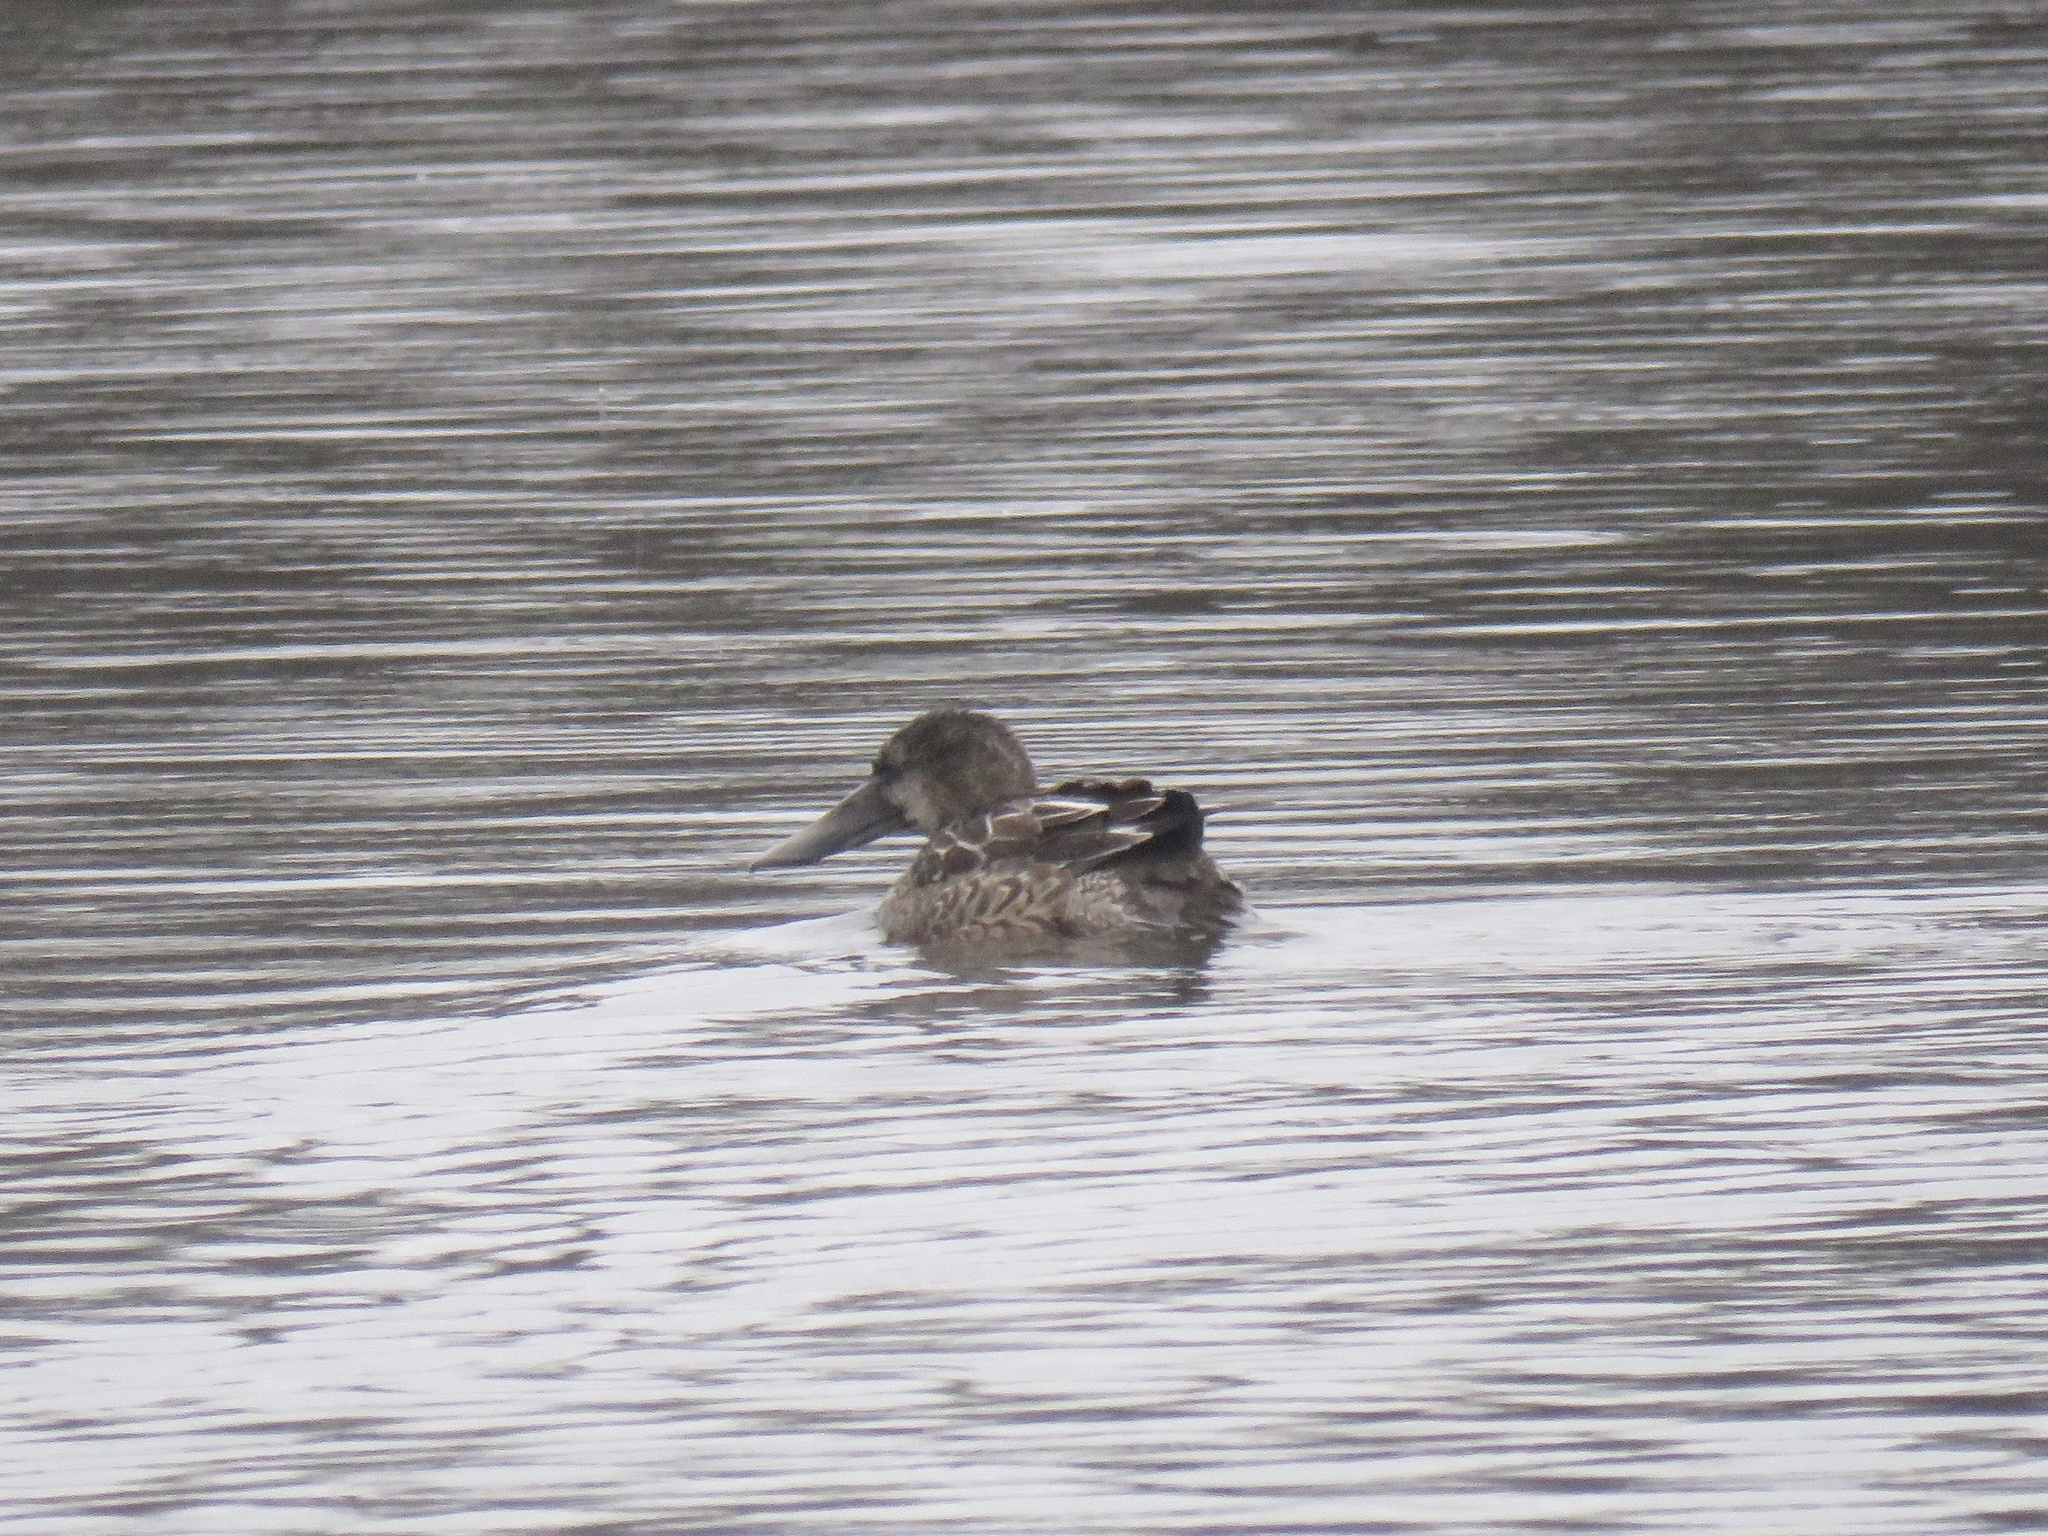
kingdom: Animalia
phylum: Chordata
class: Aves
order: Anseriformes
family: Anatidae
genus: Spatula
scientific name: Spatula clypeata
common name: Northern shoveler
